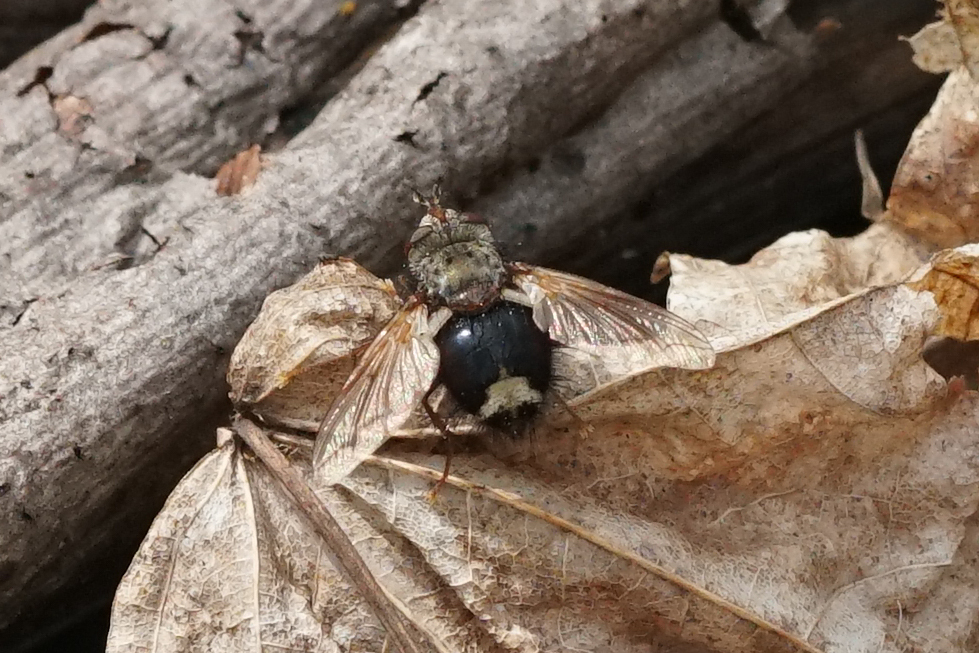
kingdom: Animalia
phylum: Arthropoda
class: Insecta
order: Diptera
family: Tachinidae
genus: Epalpus
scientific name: Epalpus signifer
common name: Early tachinid fly
